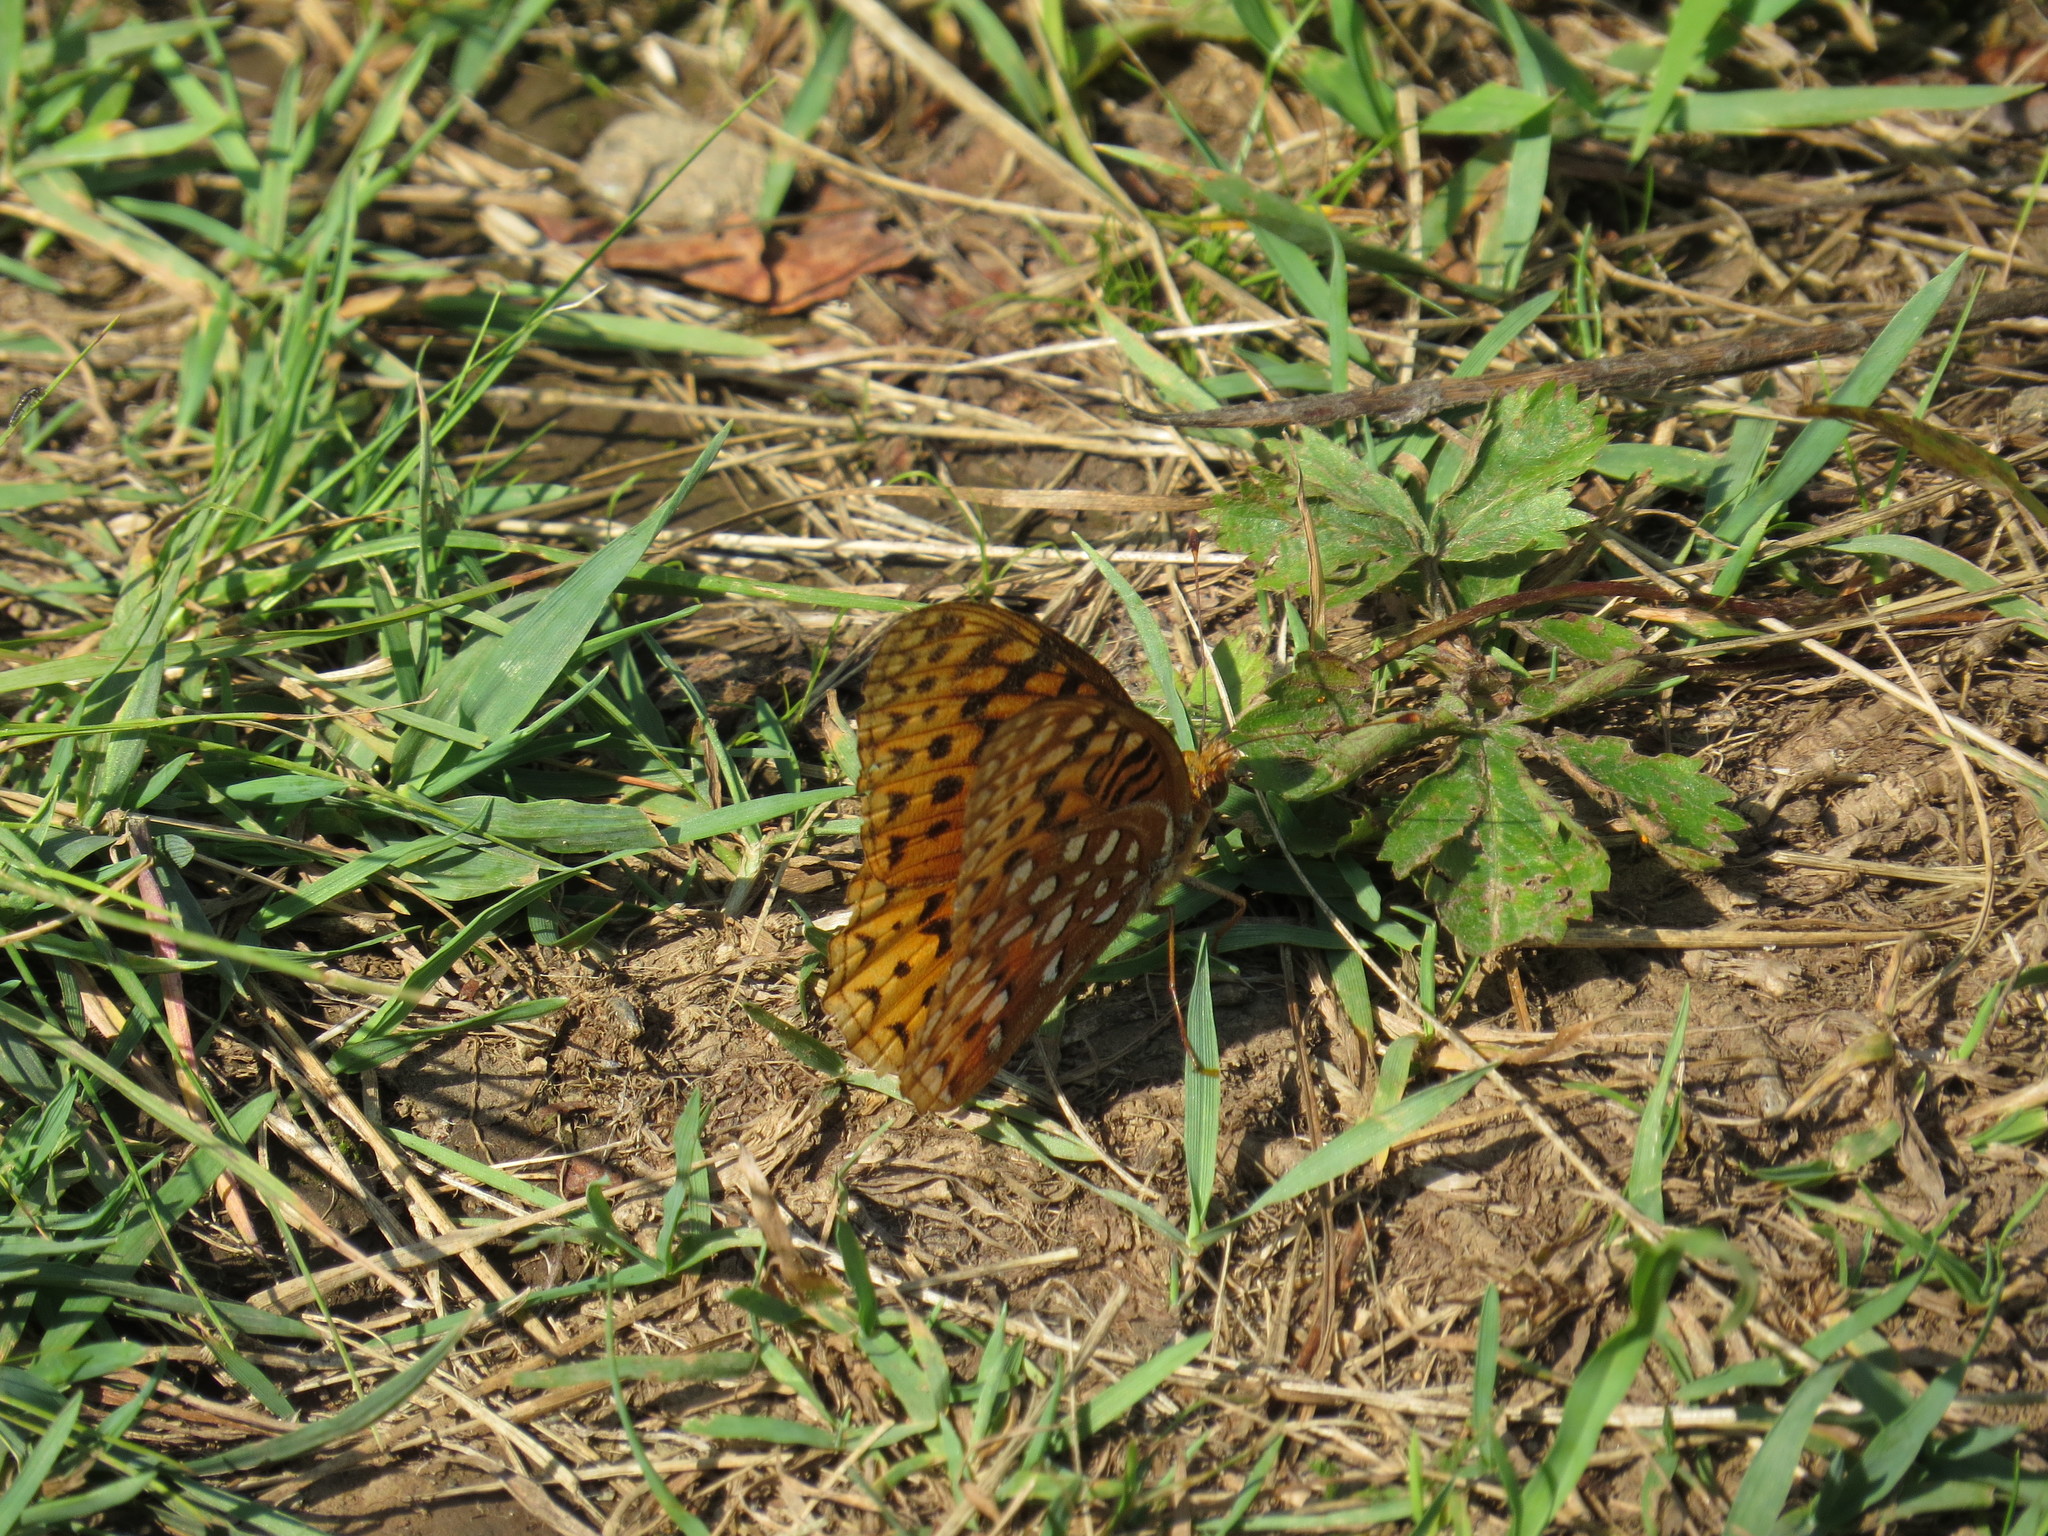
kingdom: Animalia
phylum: Arthropoda
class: Insecta
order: Lepidoptera
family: Nymphalidae
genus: Speyeria
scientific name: Speyeria aphrodite
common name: Aphrodite friitllary
